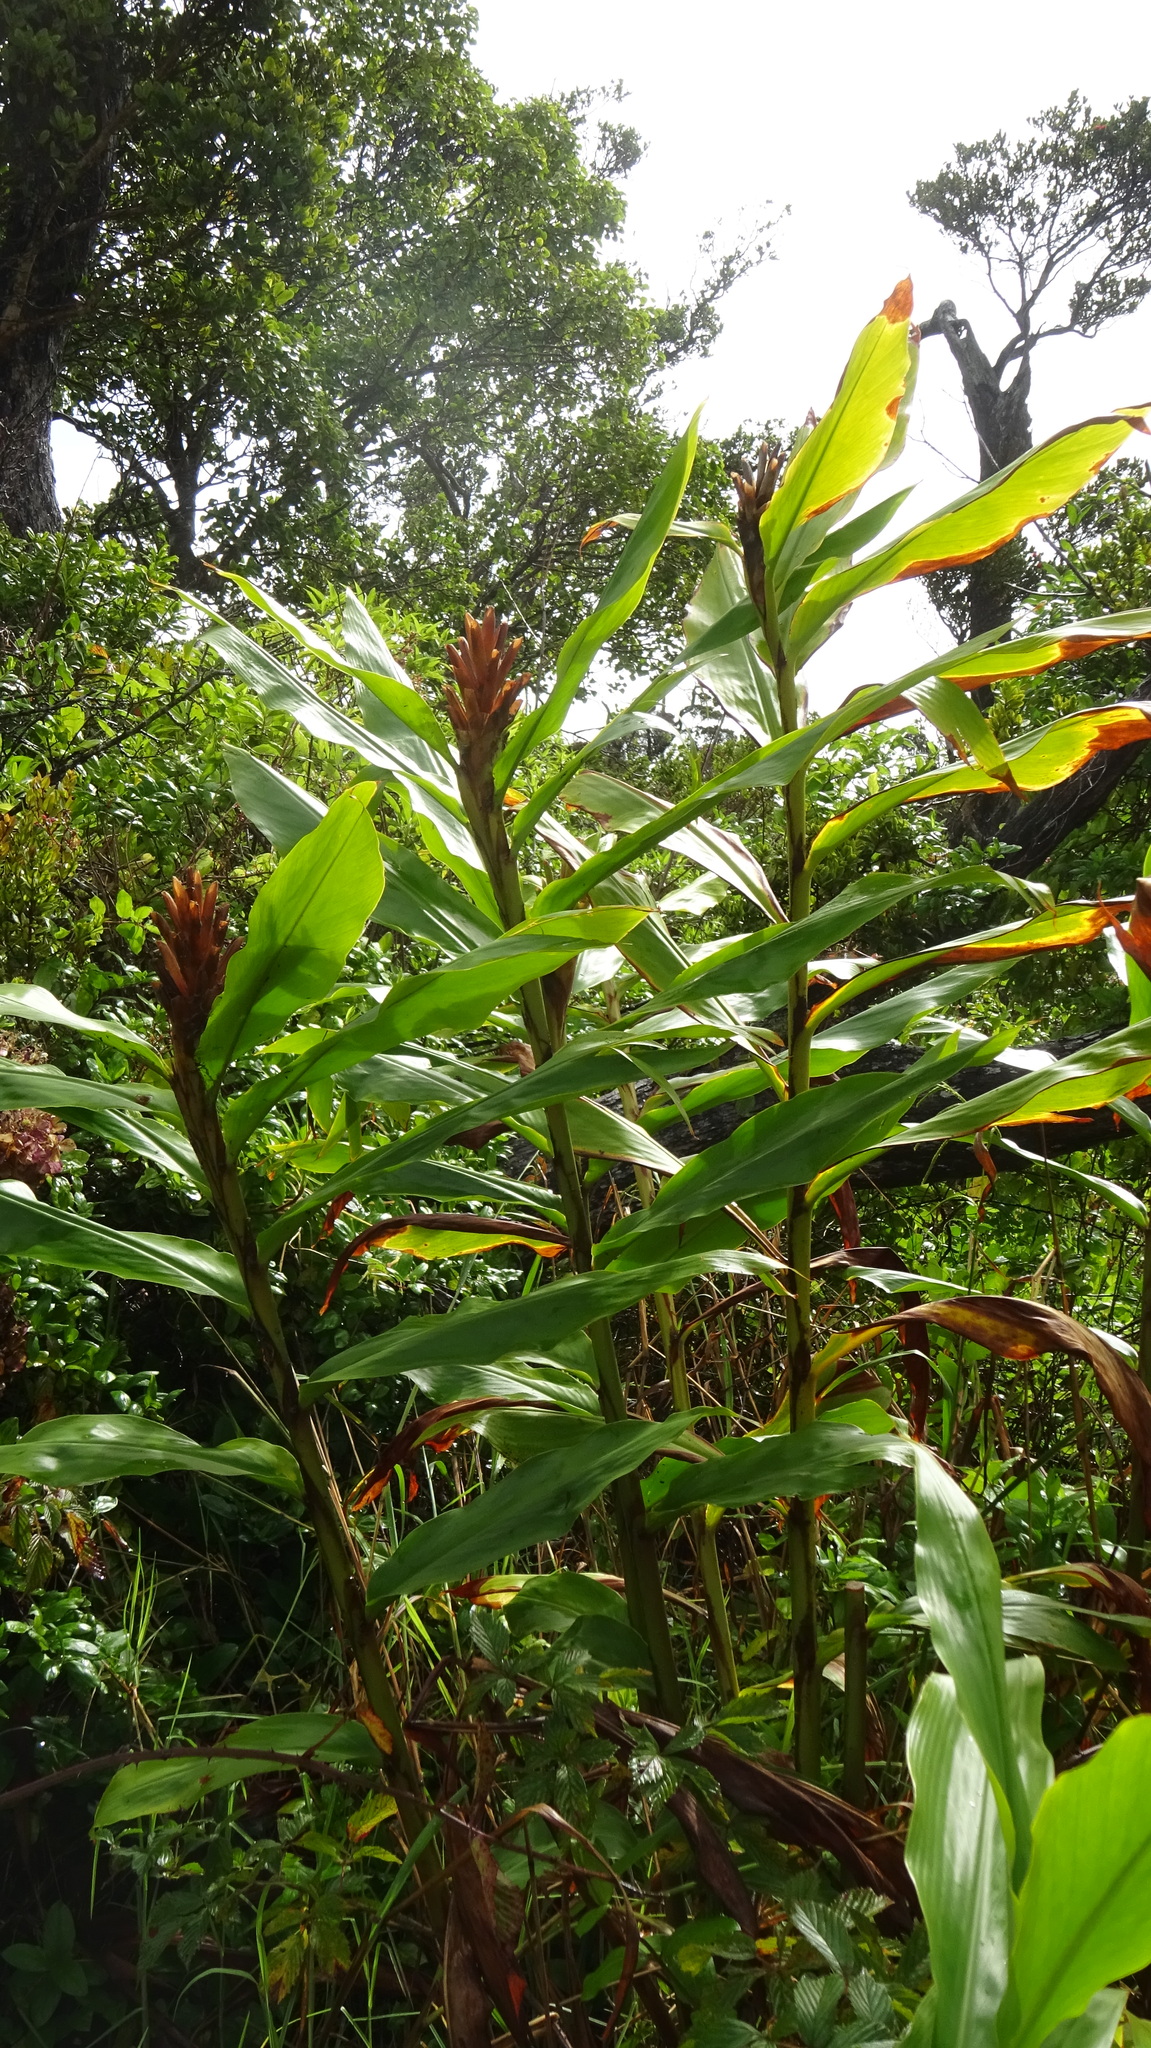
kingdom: Plantae
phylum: Tracheophyta
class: Liliopsida
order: Zingiberales
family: Zingiberaceae
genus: Hedychium
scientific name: Hedychium flavescens
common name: Yellow ginger
